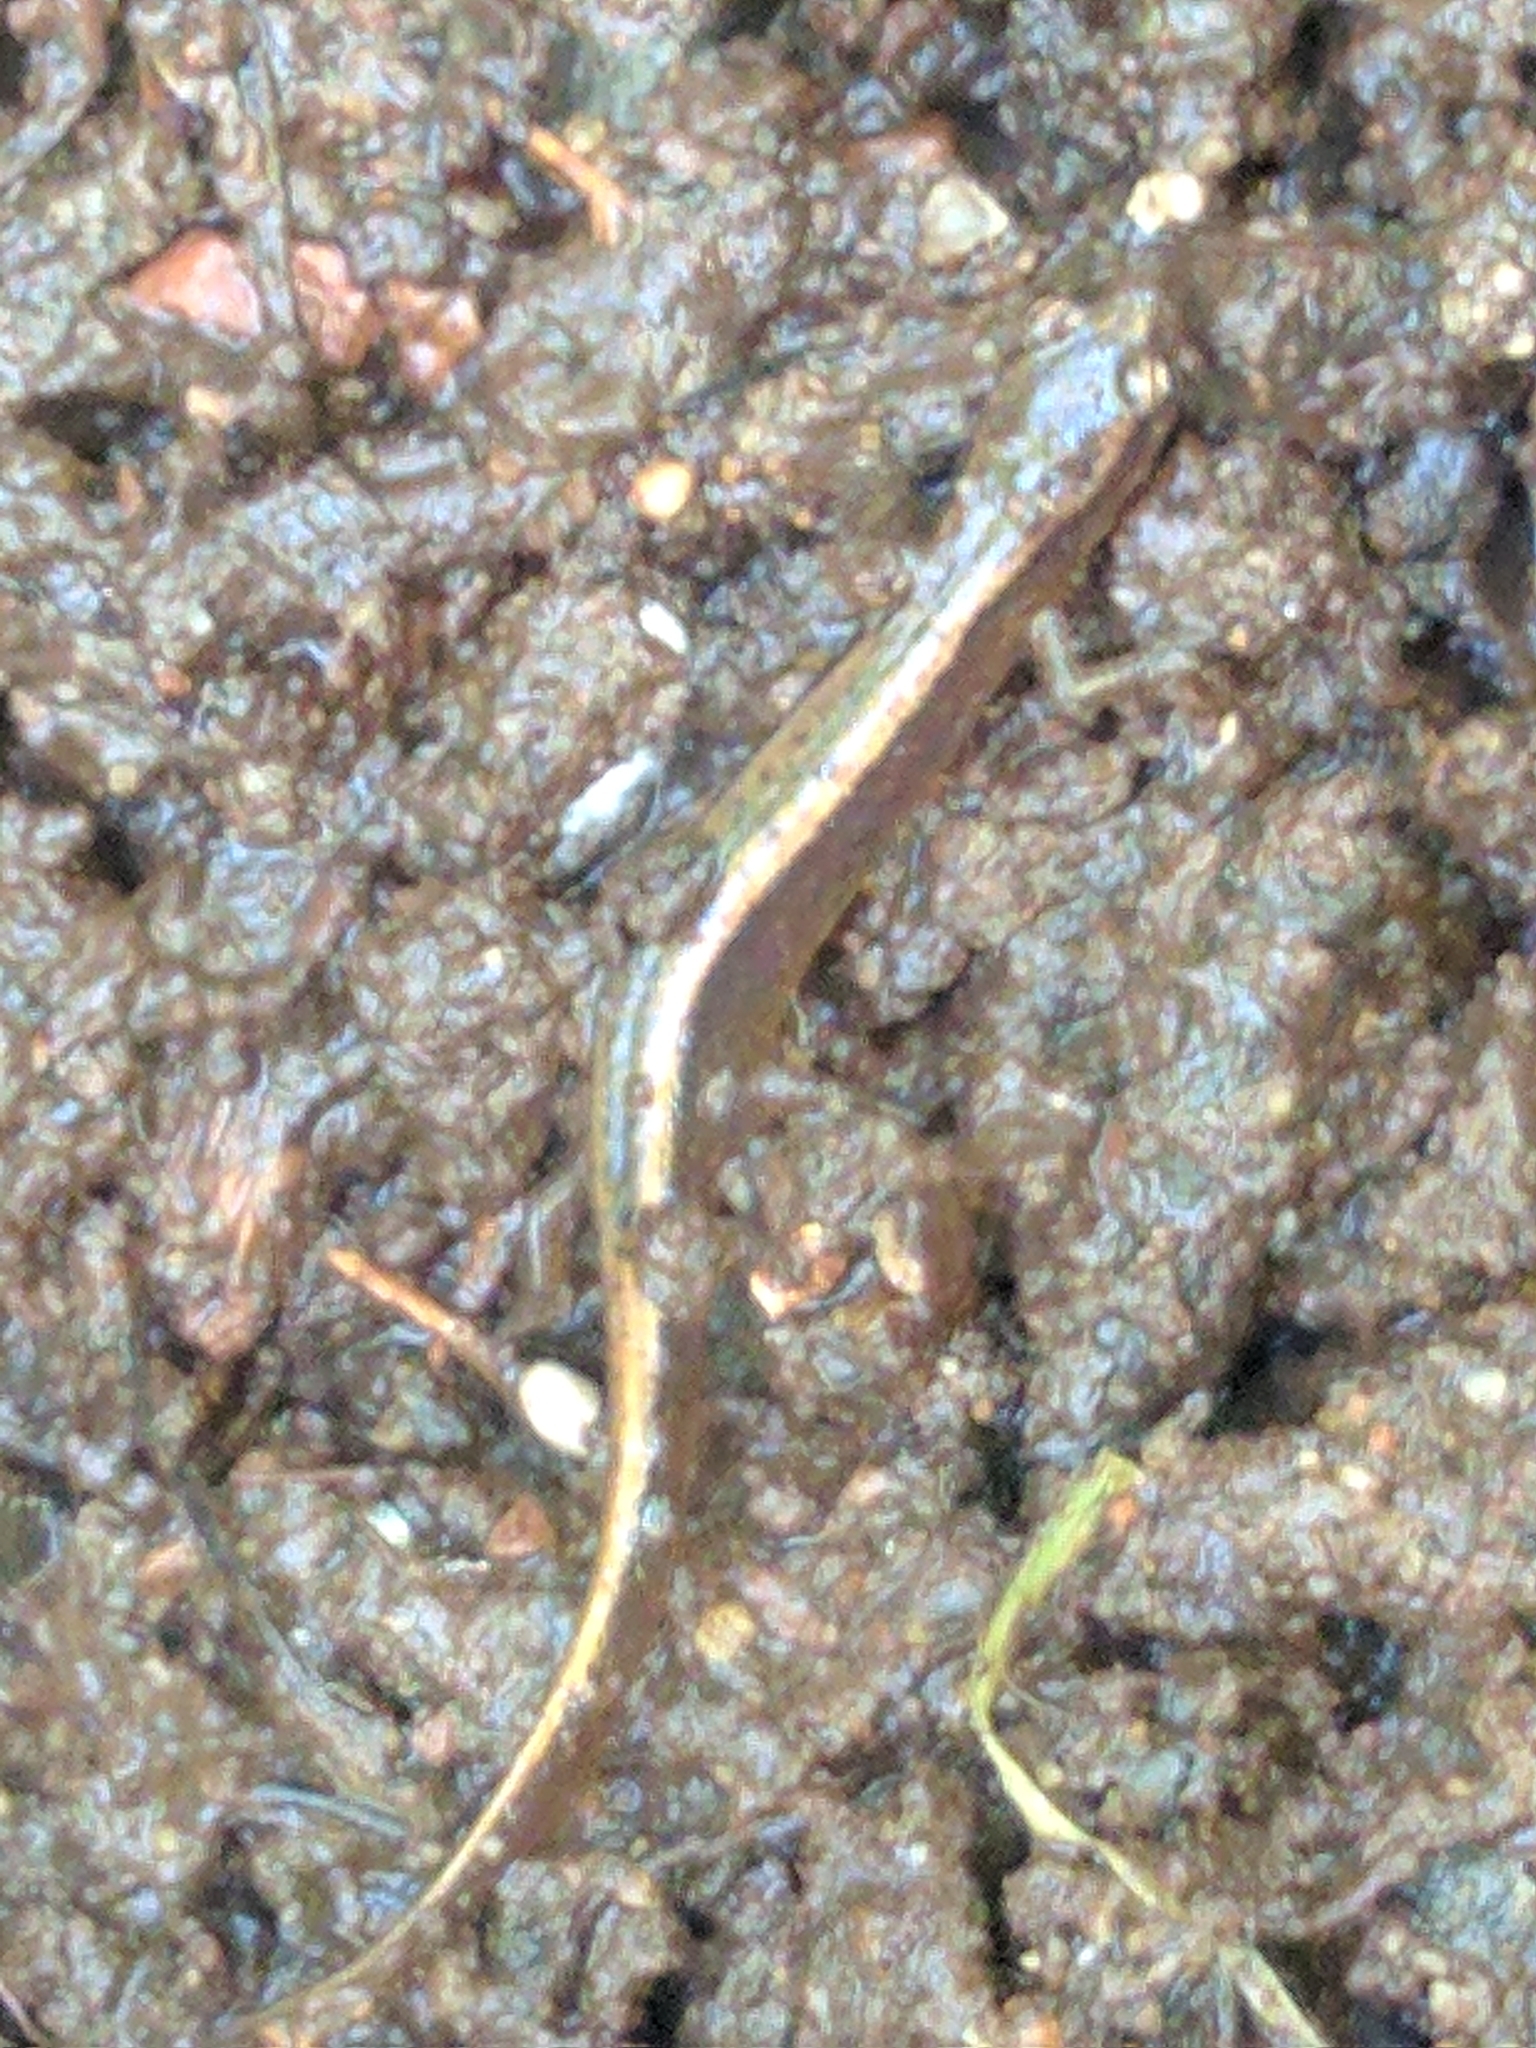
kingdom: Animalia
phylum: Chordata
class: Amphibia
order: Caudata
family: Plethodontidae
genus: Eurycea
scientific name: Eurycea bislineata
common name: Northern two-lined salamander
